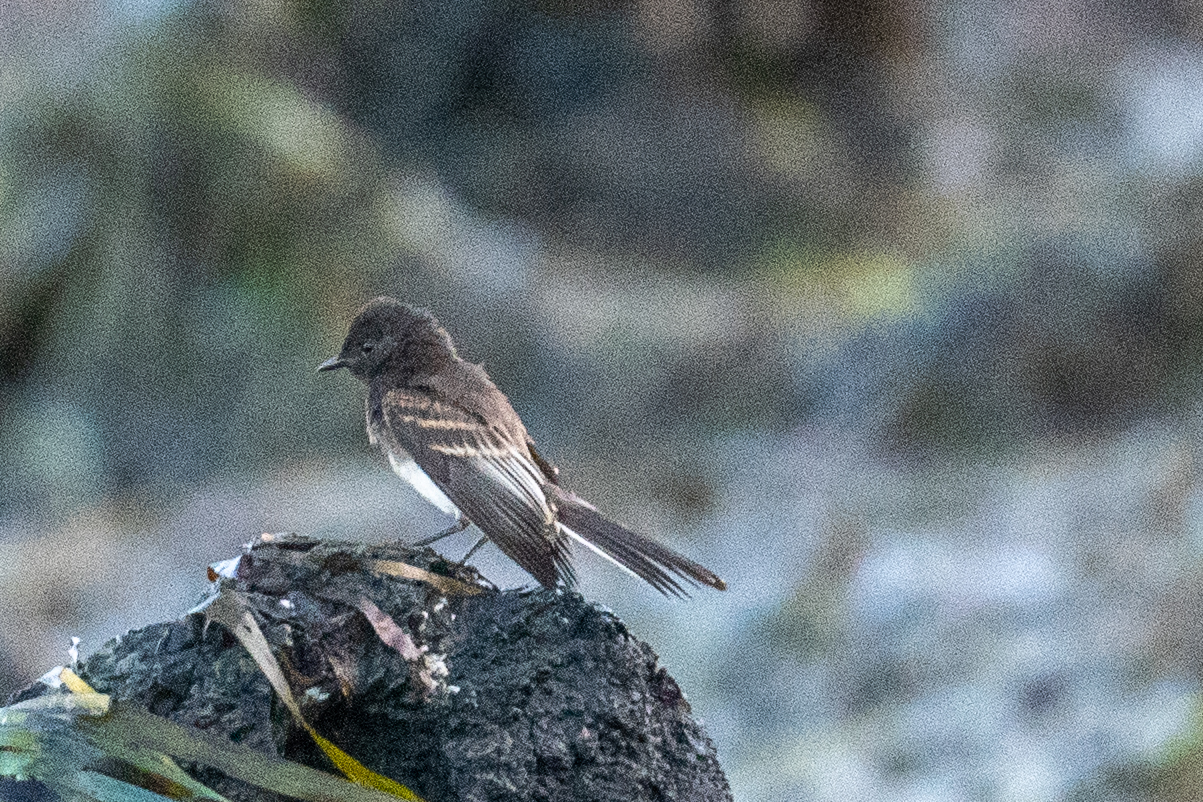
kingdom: Animalia
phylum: Chordata
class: Aves
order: Passeriformes
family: Tyrannidae
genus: Sayornis
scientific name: Sayornis nigricans
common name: Black phoebe
